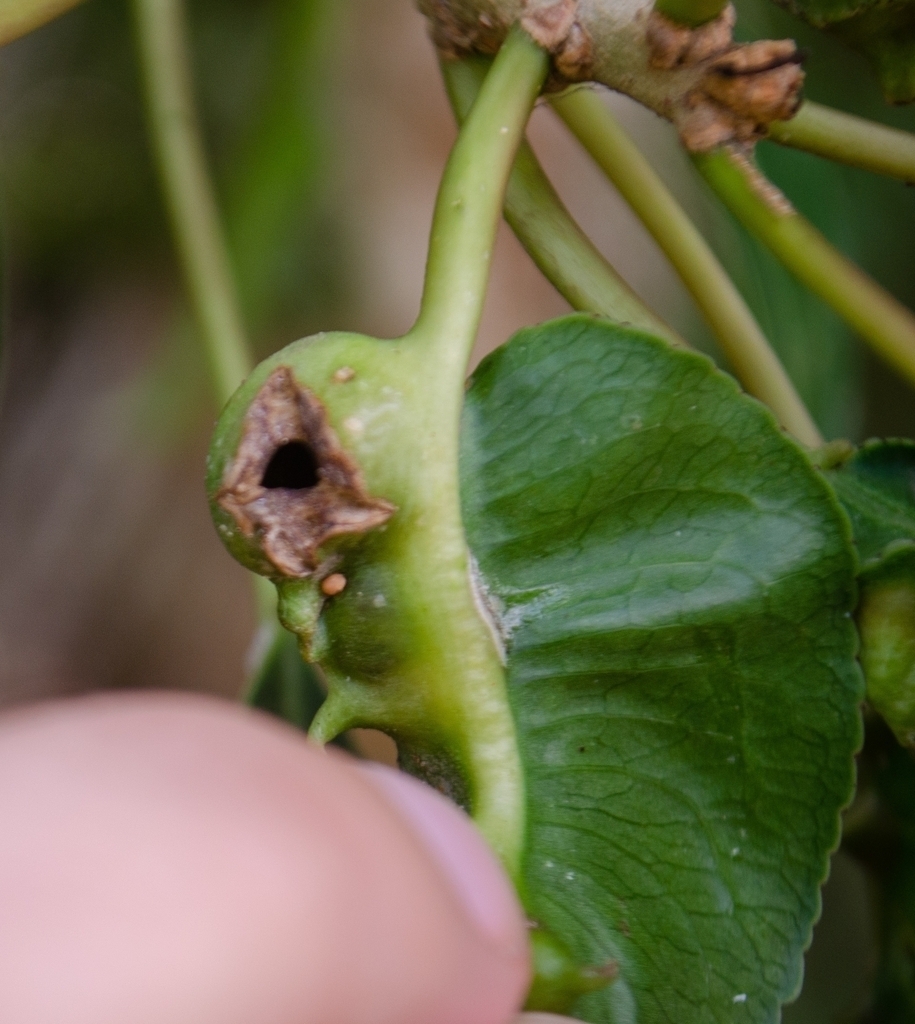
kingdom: Plantae
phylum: Tracheophyta
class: Magnoliopsida
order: Malpighiales
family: Euphorbiaceae
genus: Sapium
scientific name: Sapium glandulosum
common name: Milktree
